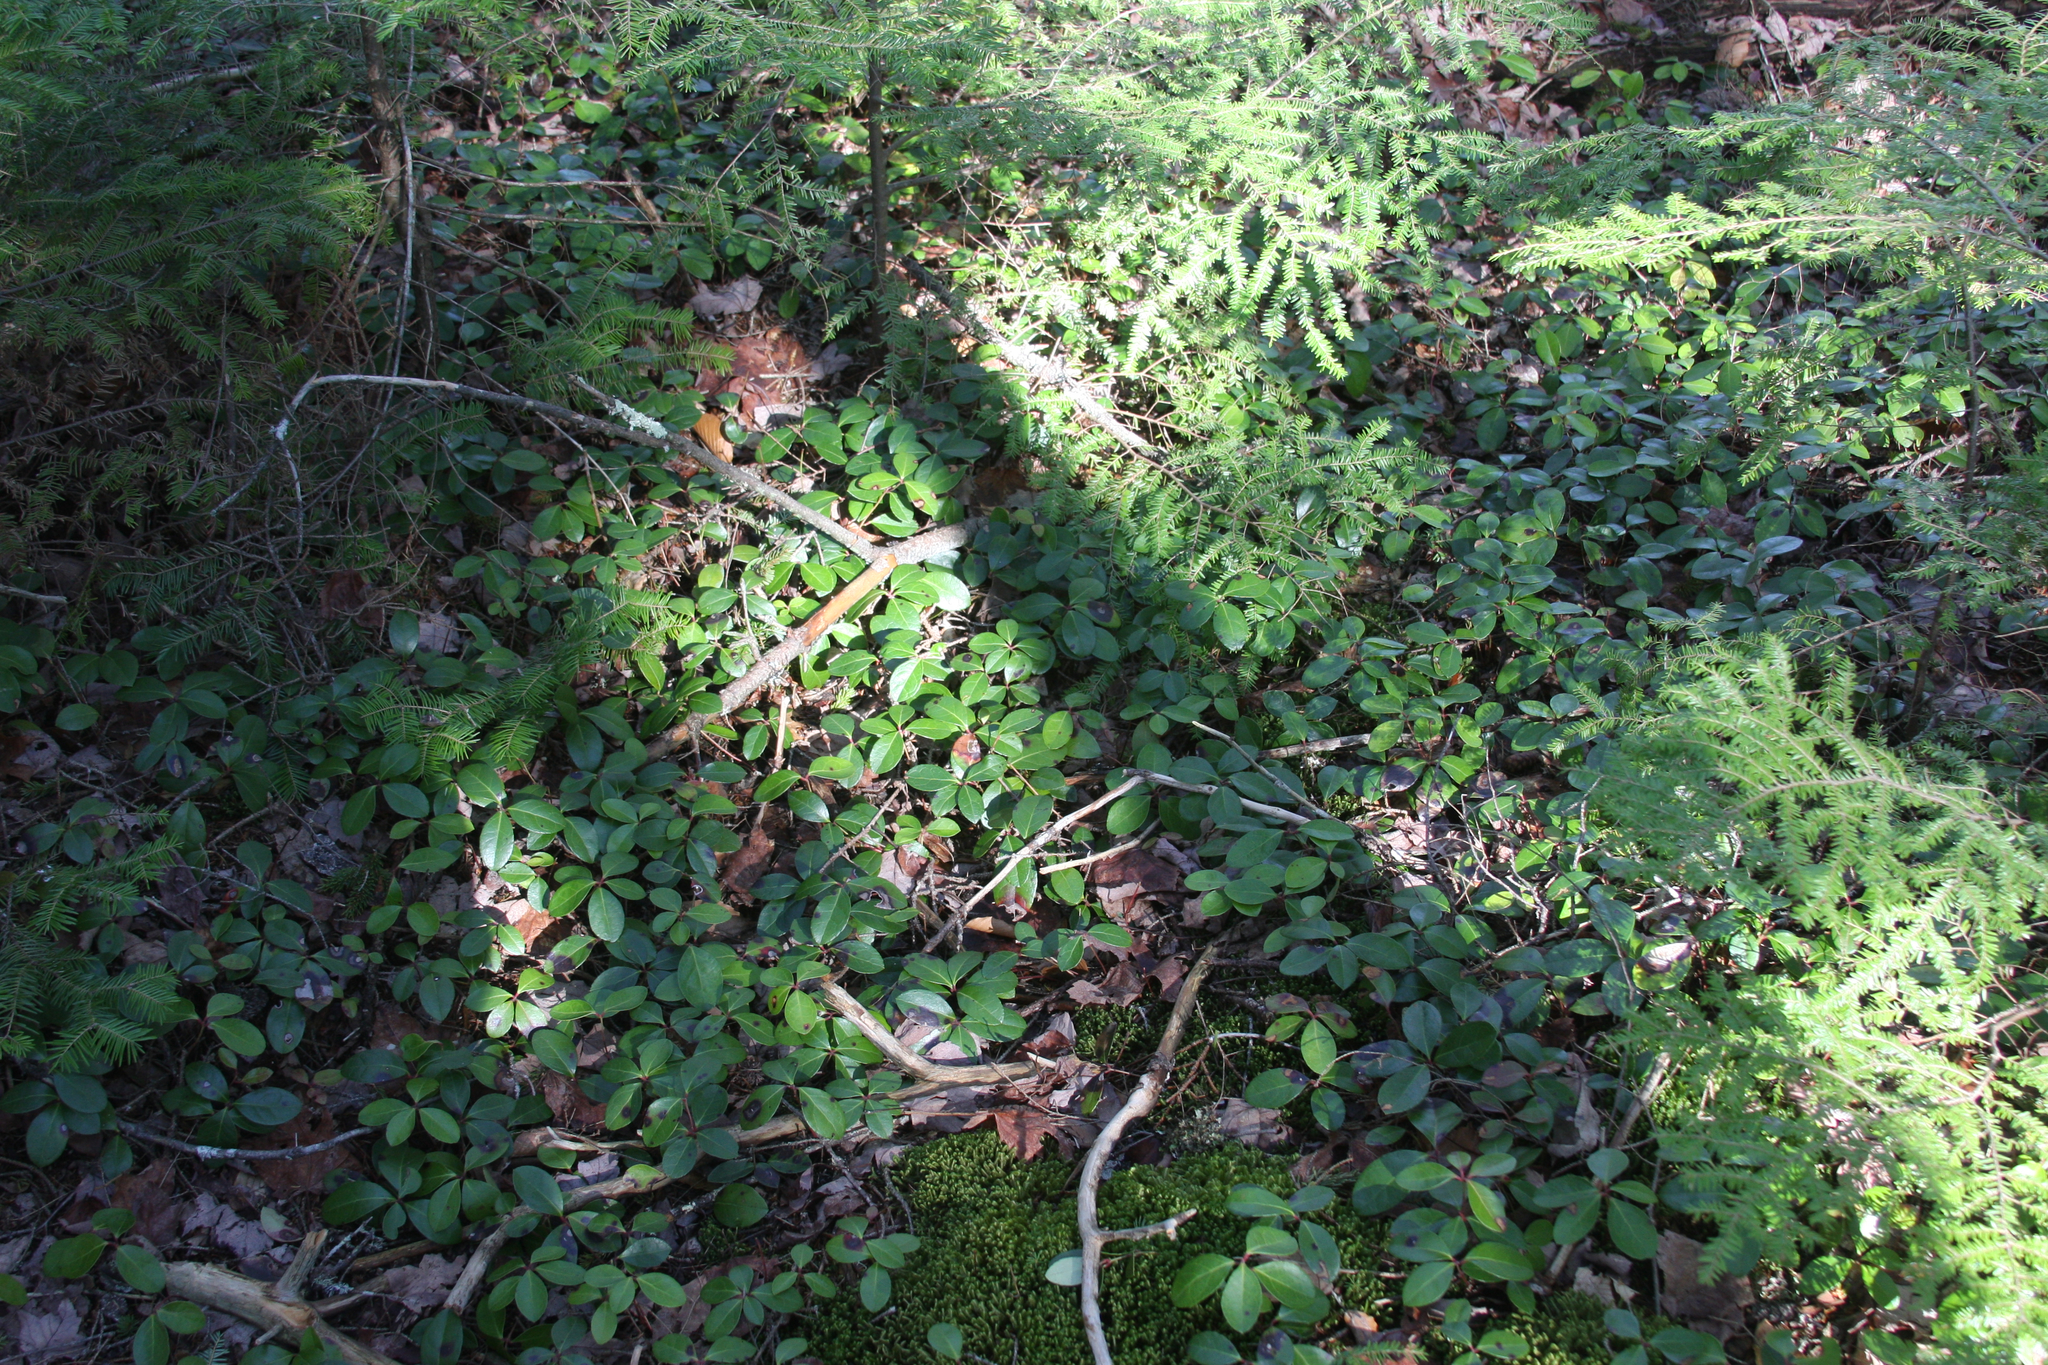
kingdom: Plantae
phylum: Tracheophyta
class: Magnoliopsida
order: Ericales
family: Ericaceae
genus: Gaultheria
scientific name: Gaultheria procumbens
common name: Checkerberry
